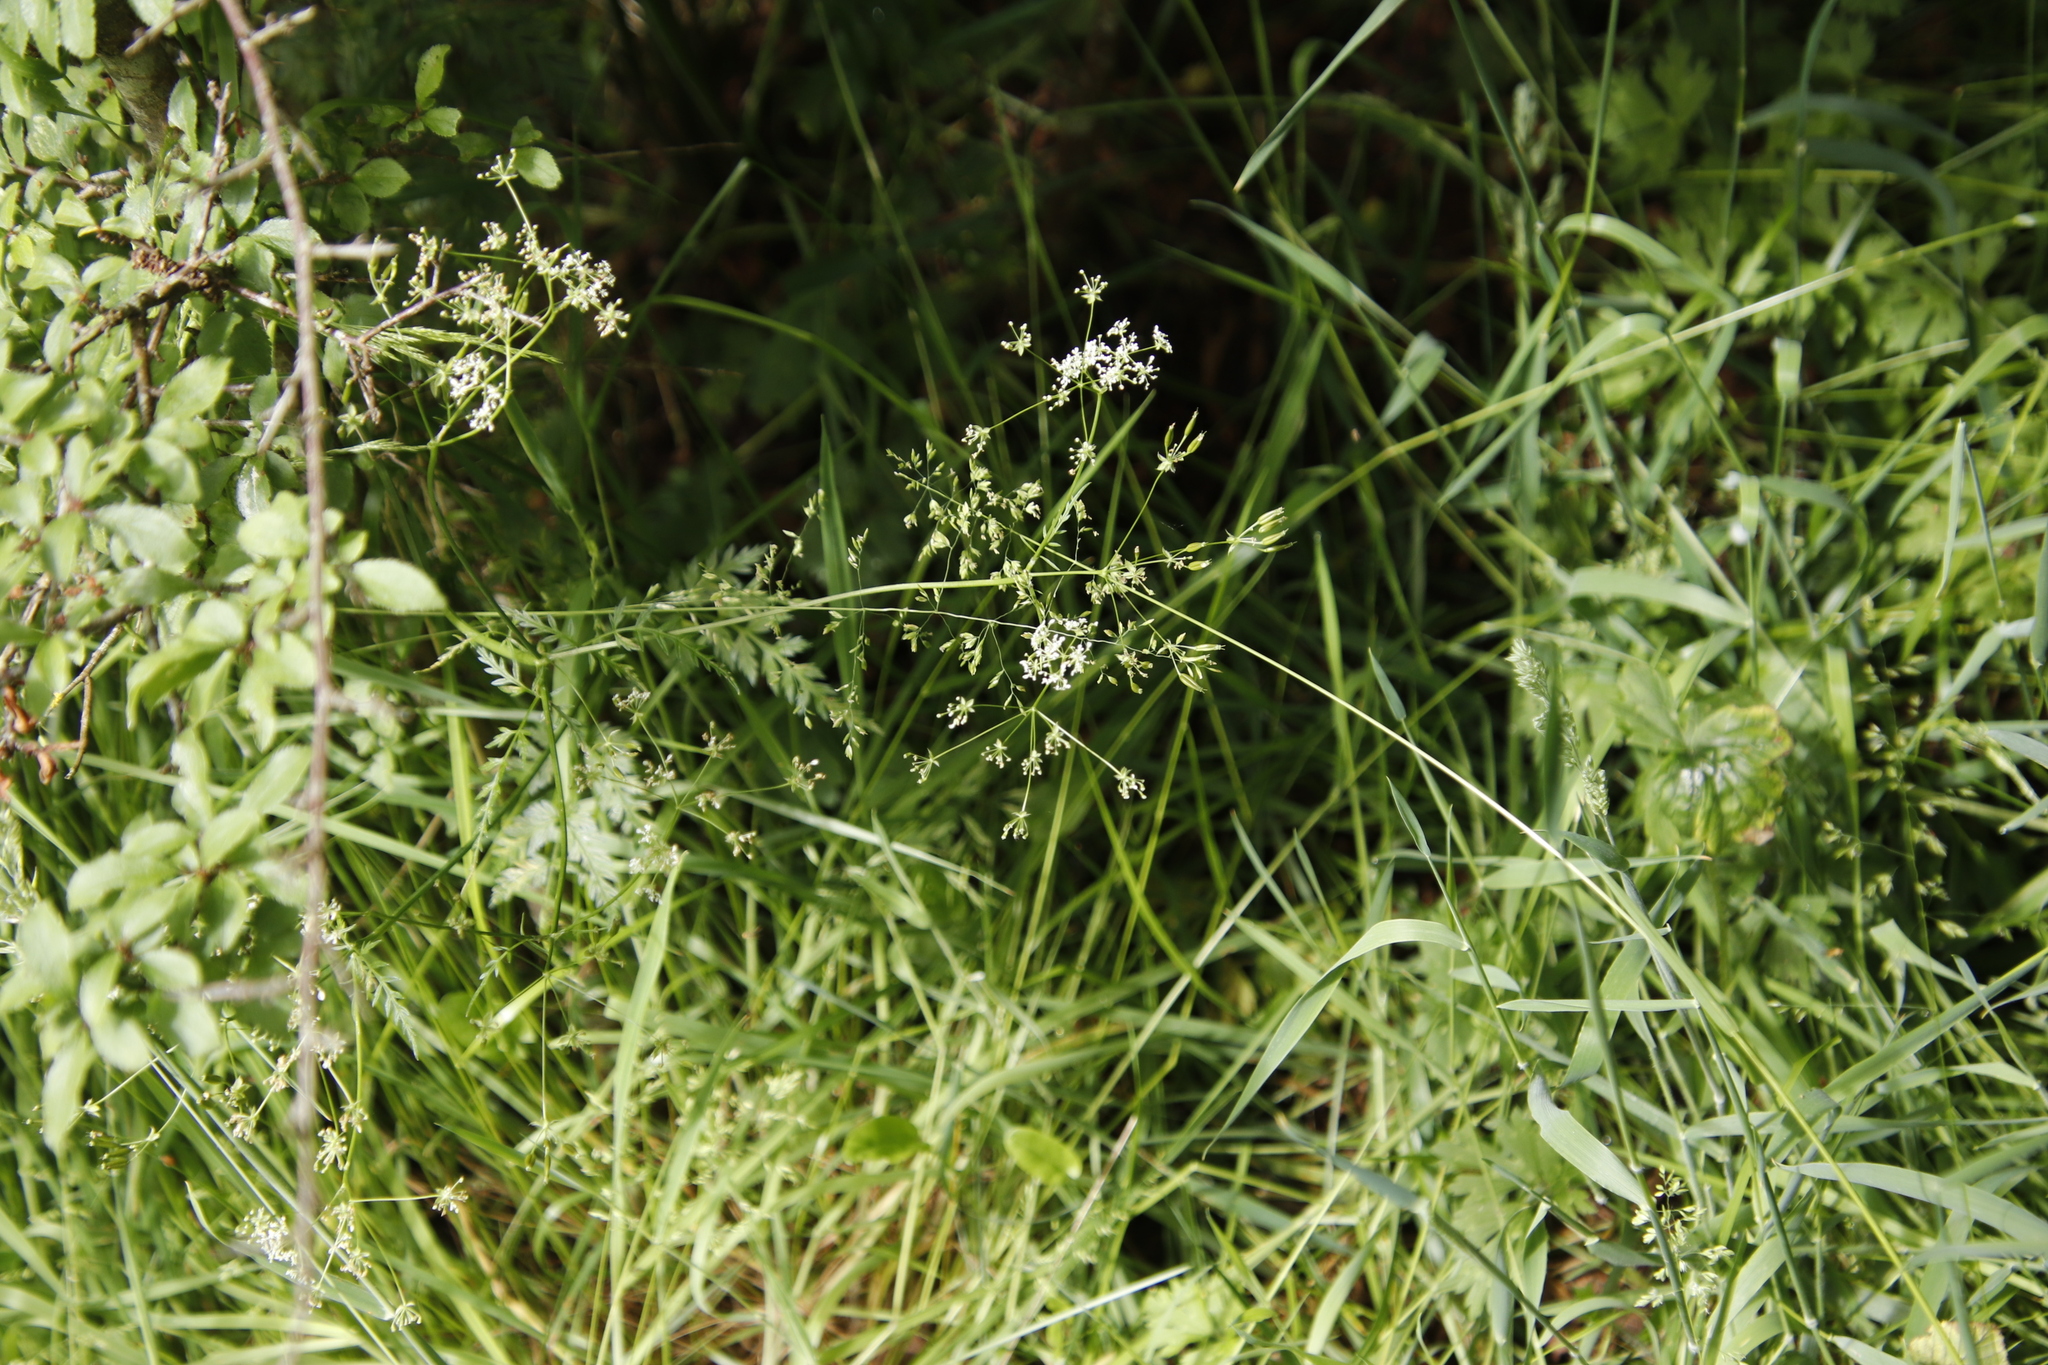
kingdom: Plantae
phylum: Tracheophyta
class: Magnoliopsida
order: Apiales
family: Apiaceae
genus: Anthriscus
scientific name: Anthriscus sylvestris
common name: Cow parsley
